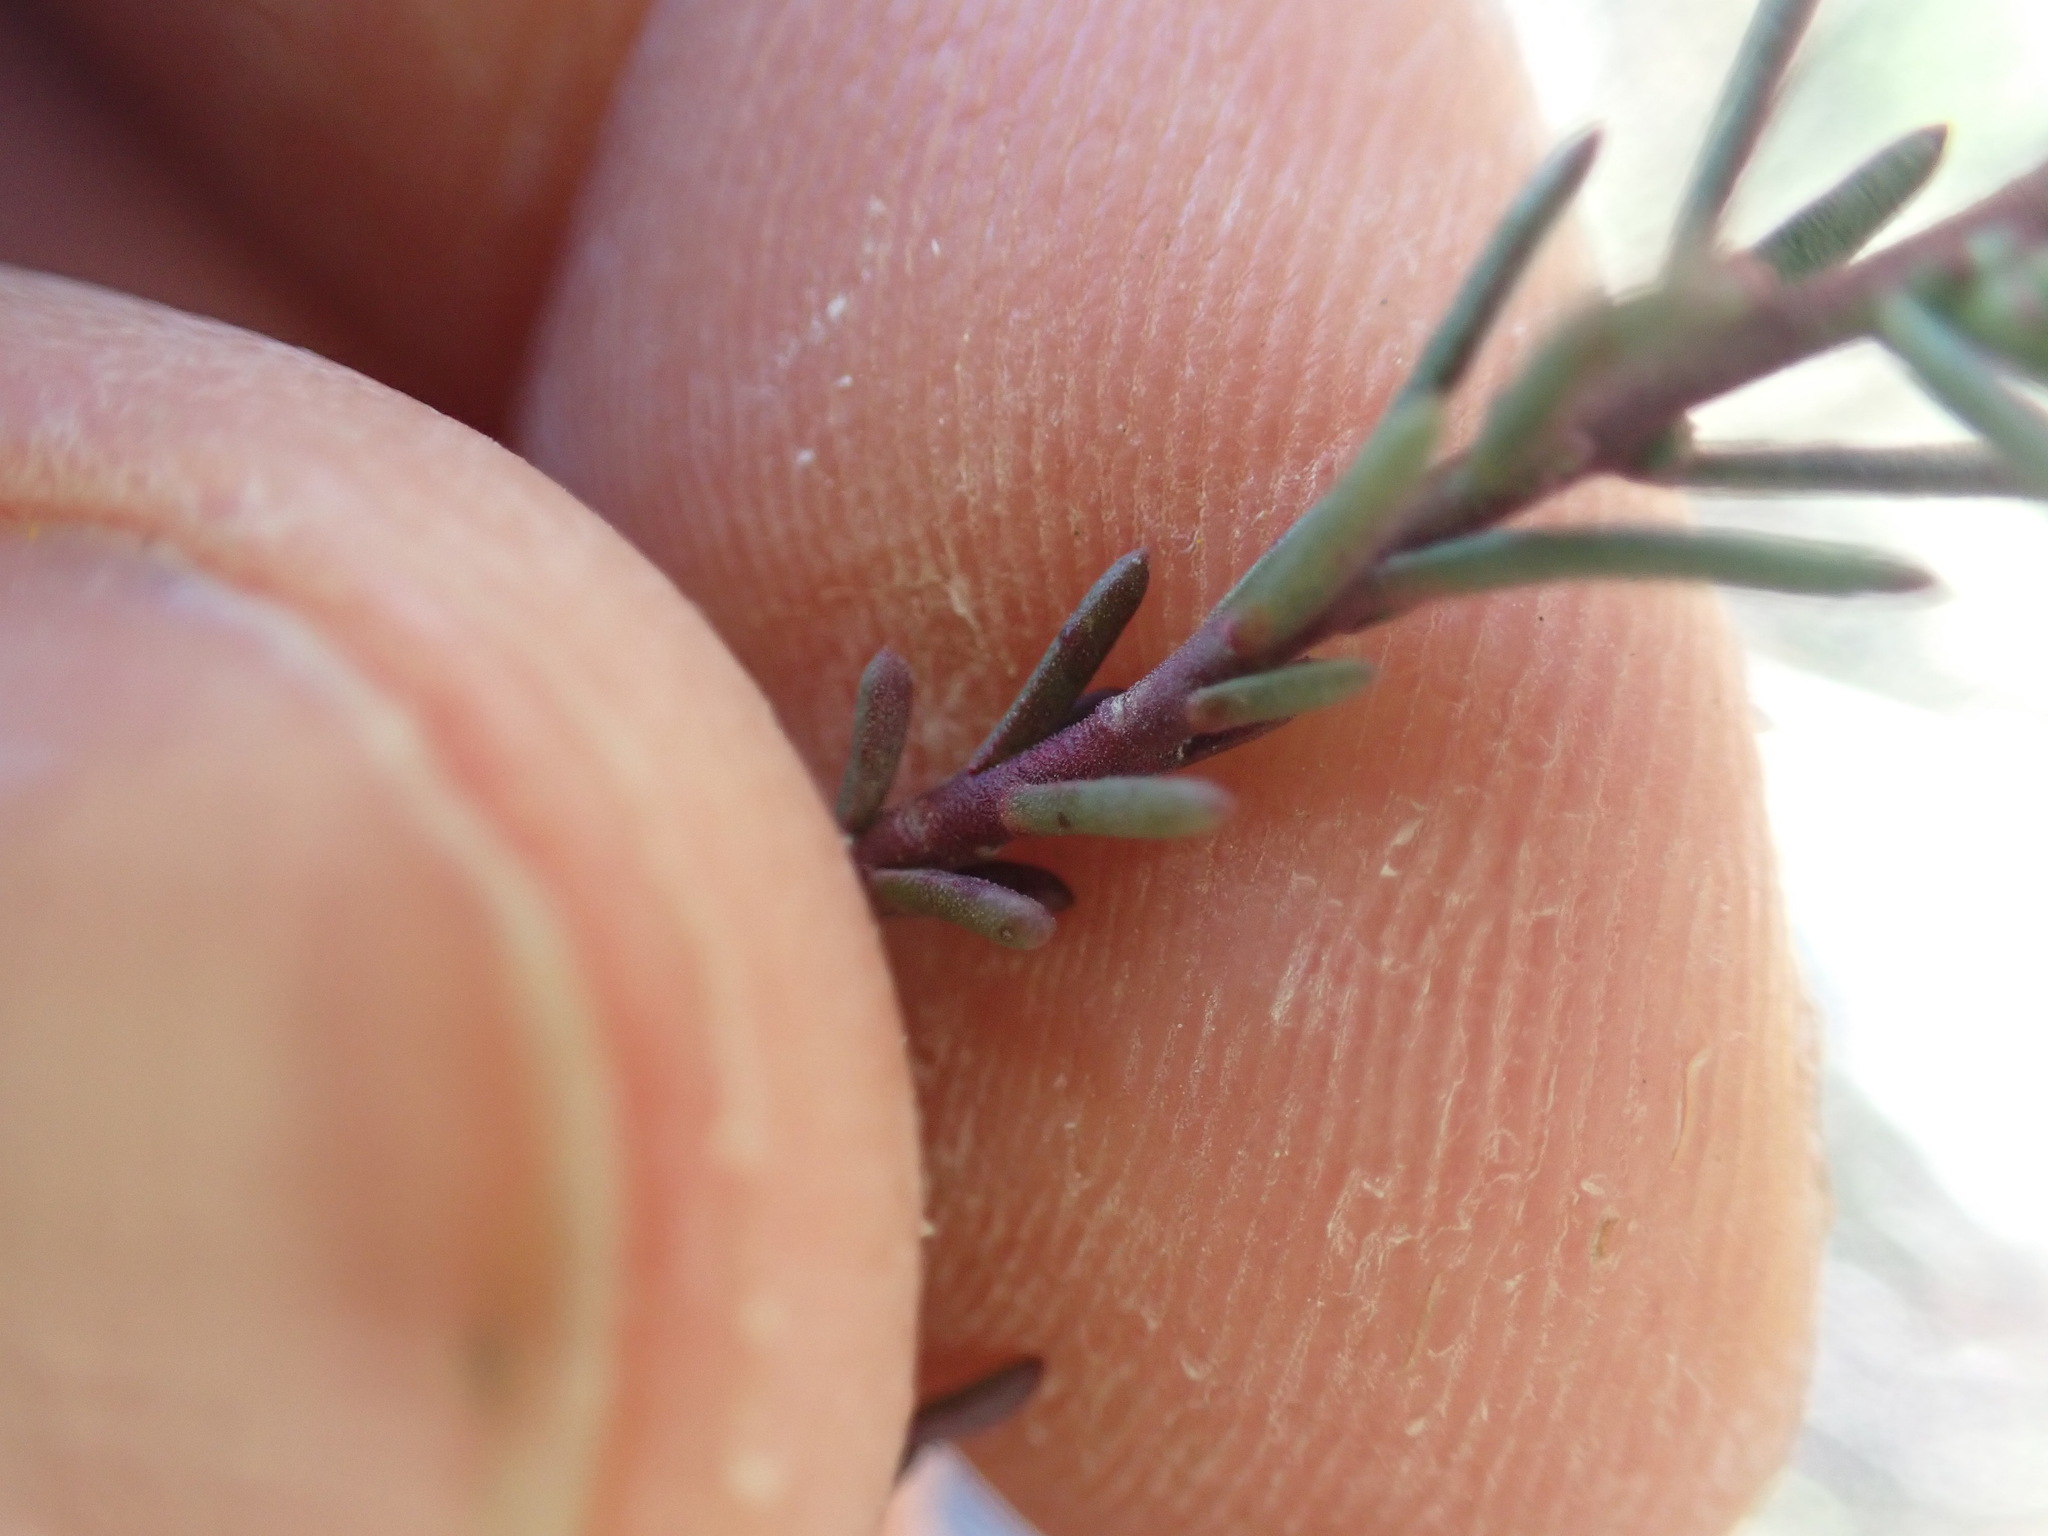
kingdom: Plantae
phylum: Tracheophyta
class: Magnoliopsida
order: Malvales
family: Cistaceae
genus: Fumana
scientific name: Fumana ericifolia
